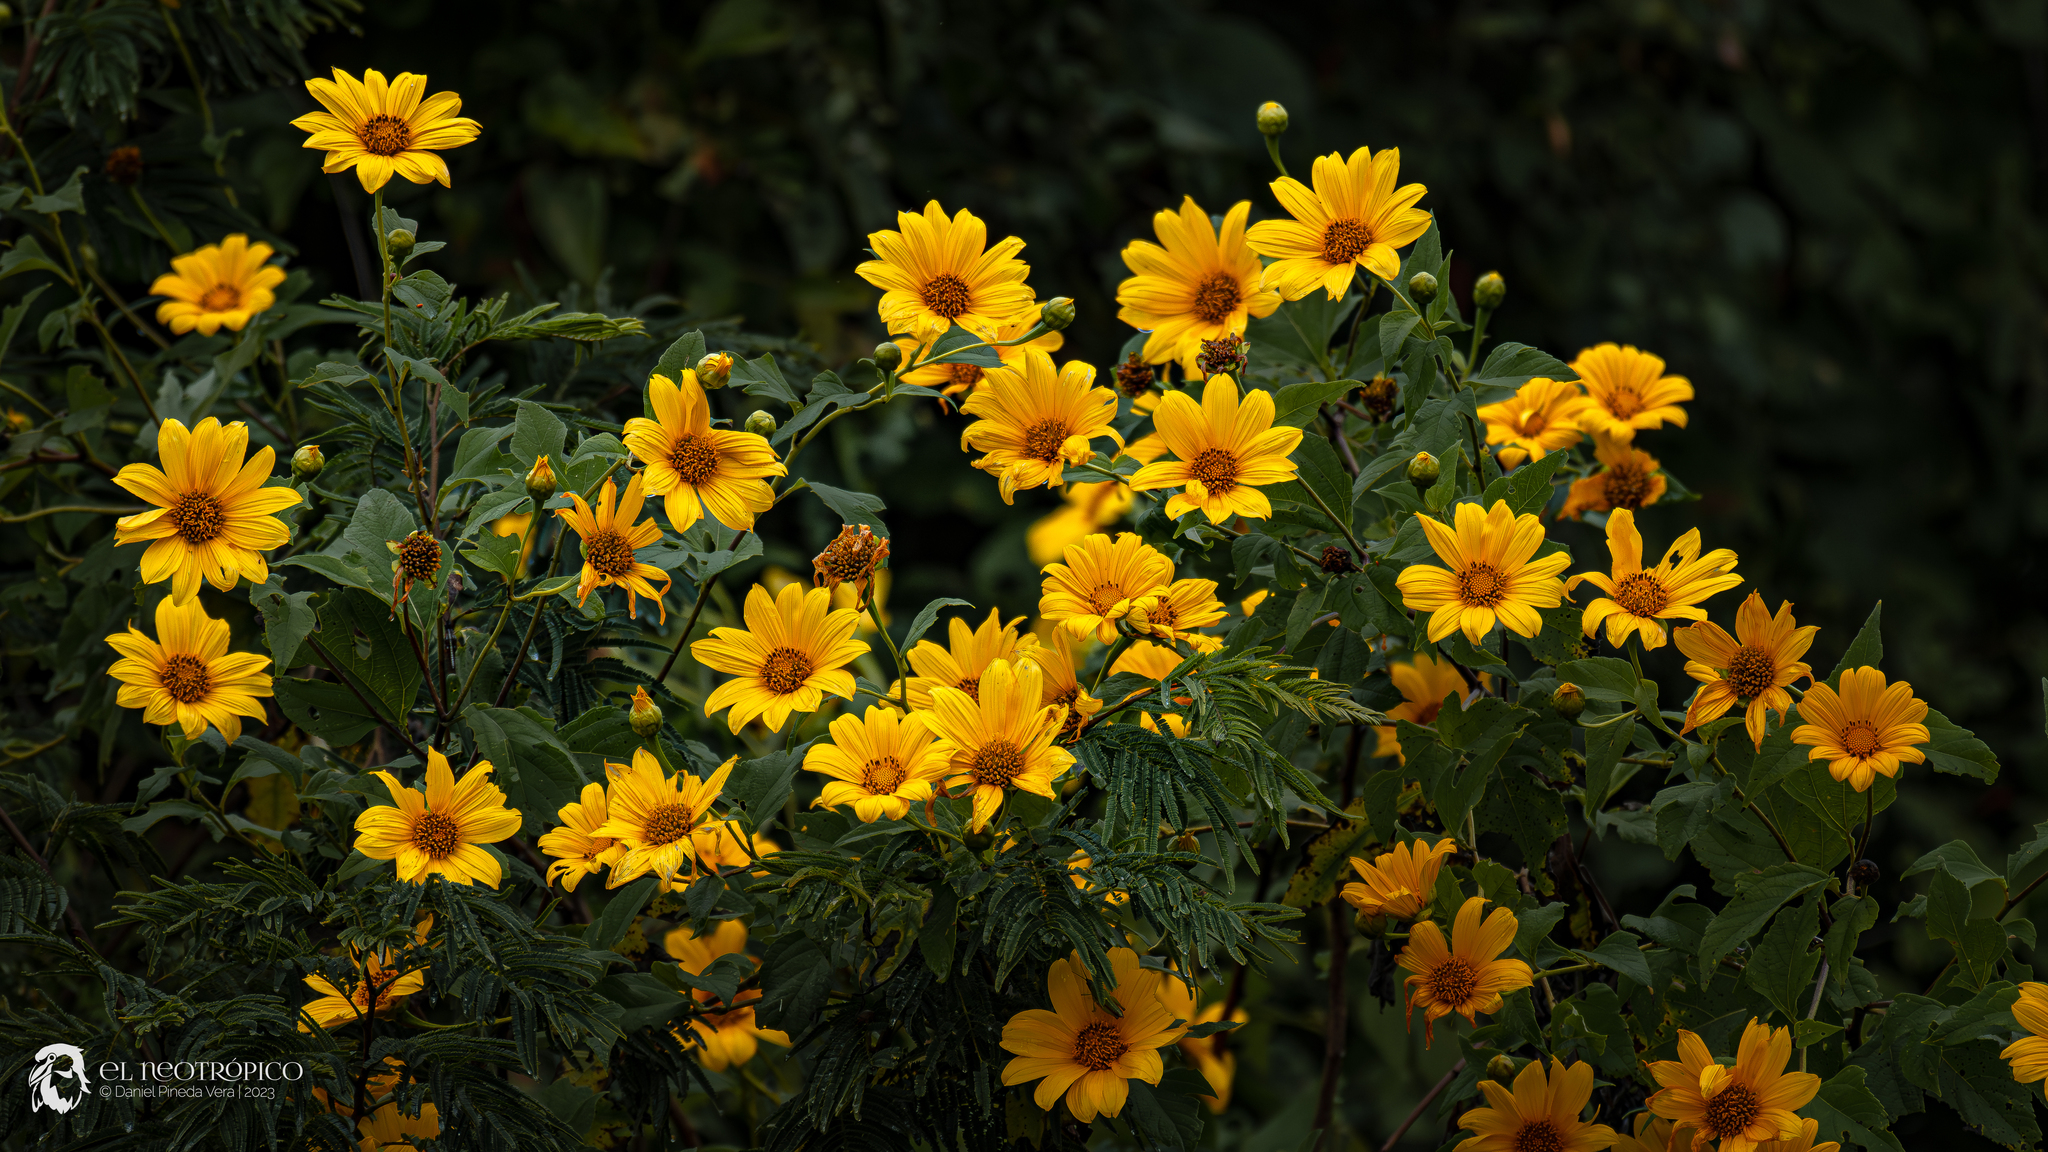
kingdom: Plantae
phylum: Tracheophyta
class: Magnoliopsida
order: Asterales
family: Asteraceae
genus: Tithonia
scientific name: Tithonia diversifolia
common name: Tree marigold
